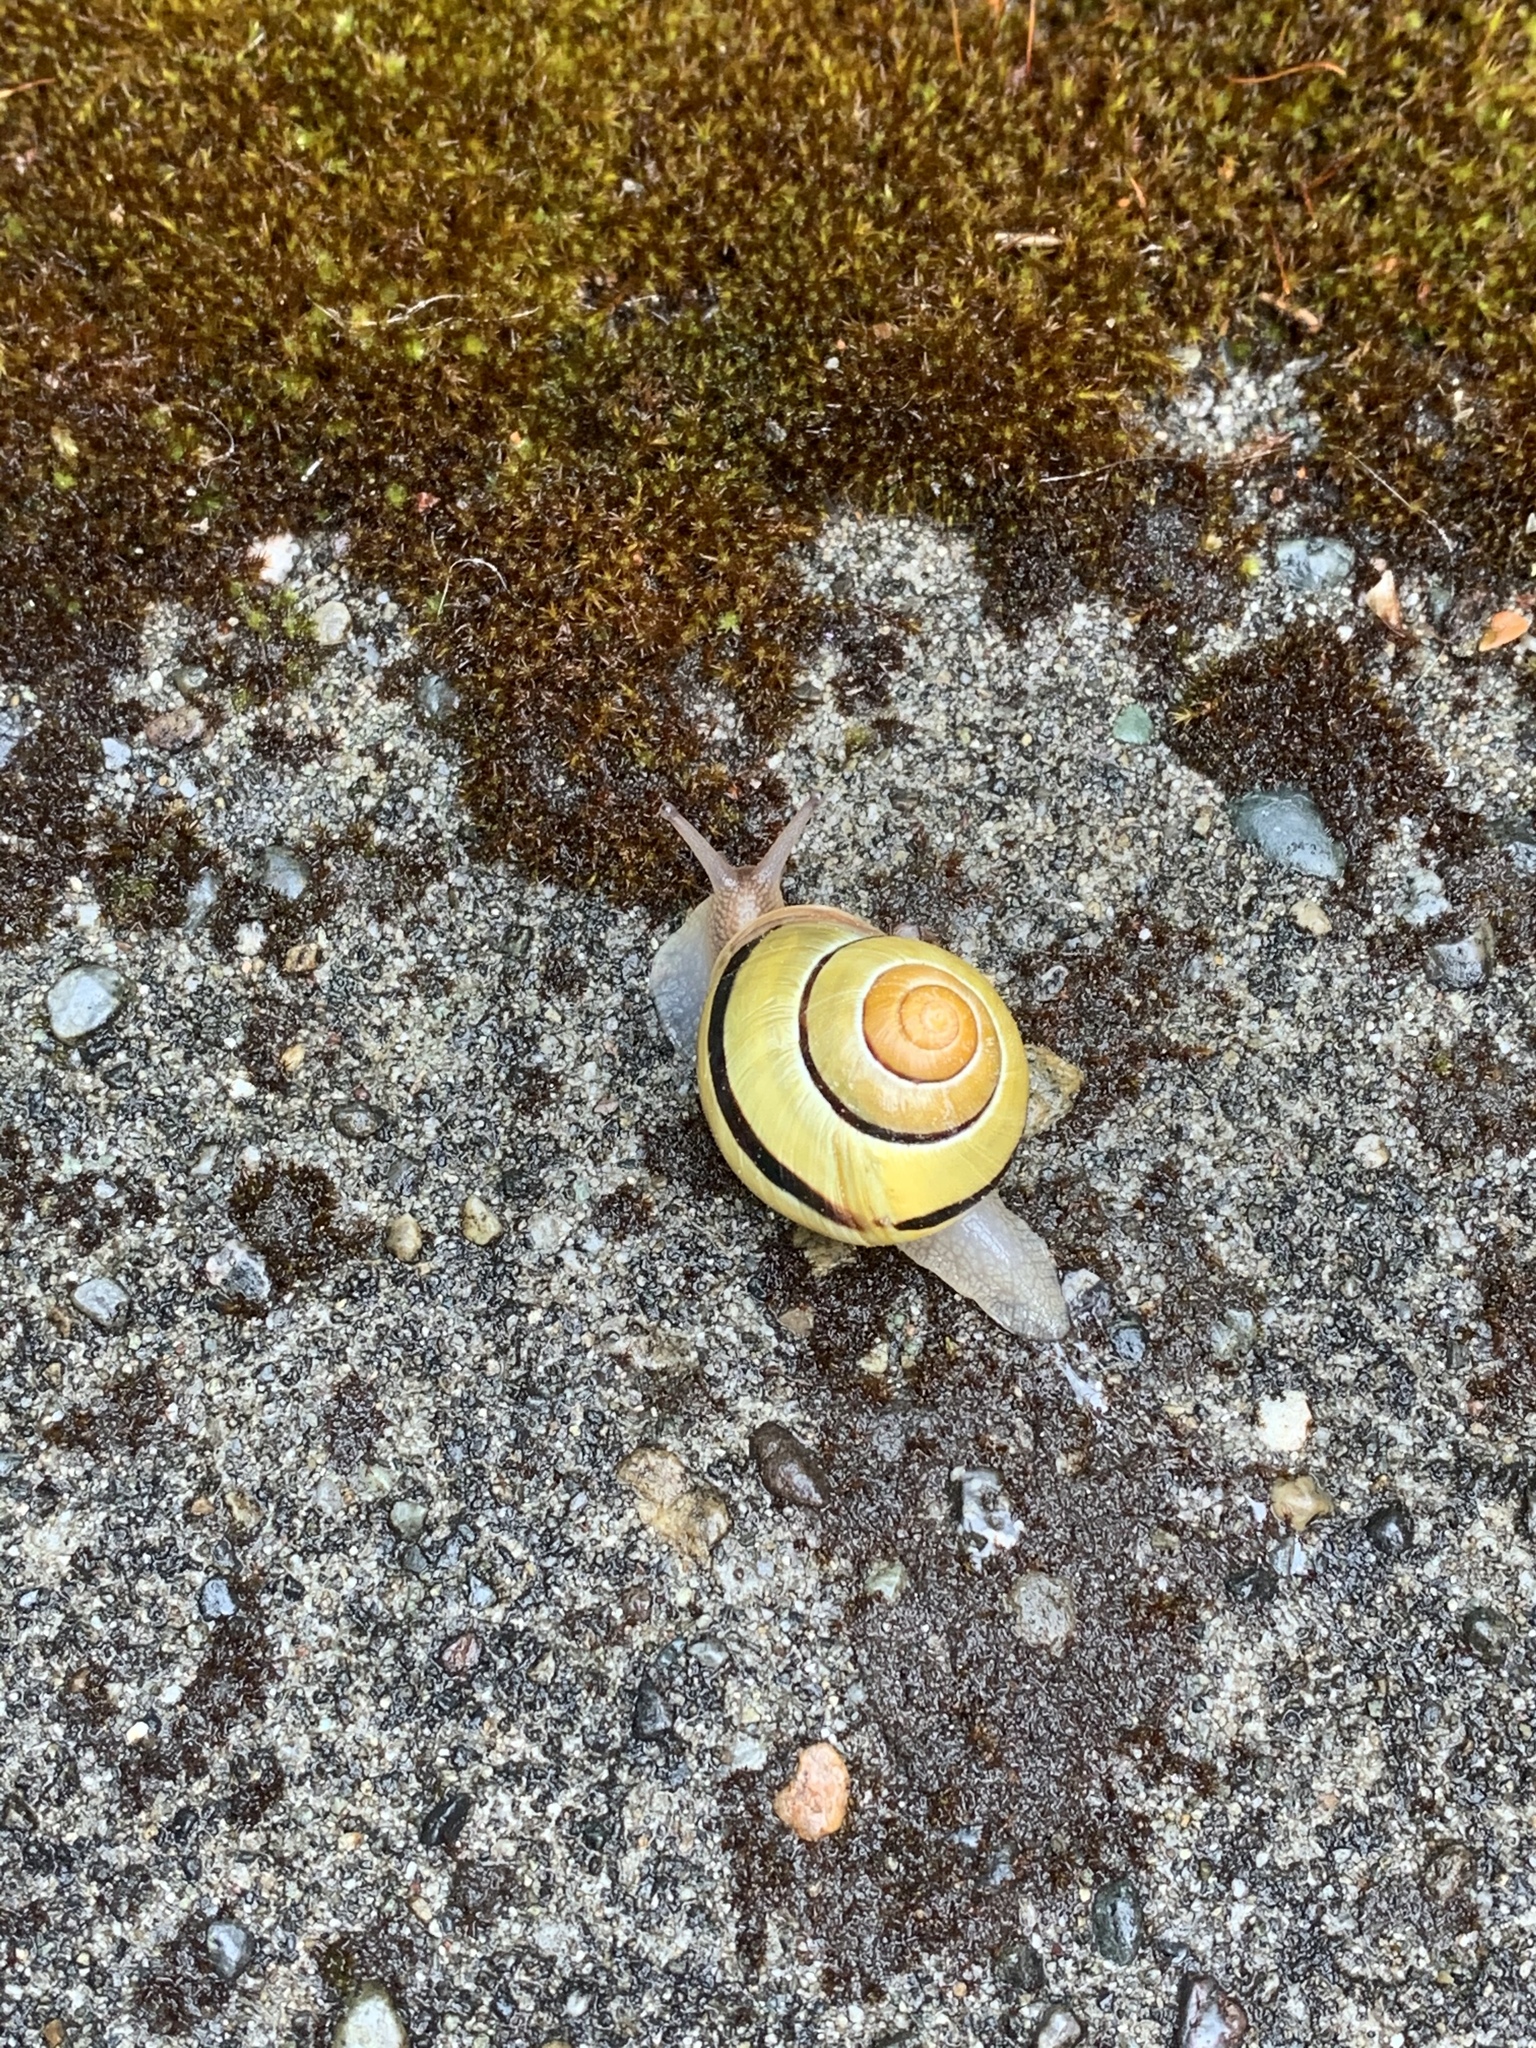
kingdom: Animalia
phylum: Mollusca
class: Gastropoda
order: Stylommatophora
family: Helicidae
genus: Cepaea
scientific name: Cepaea
